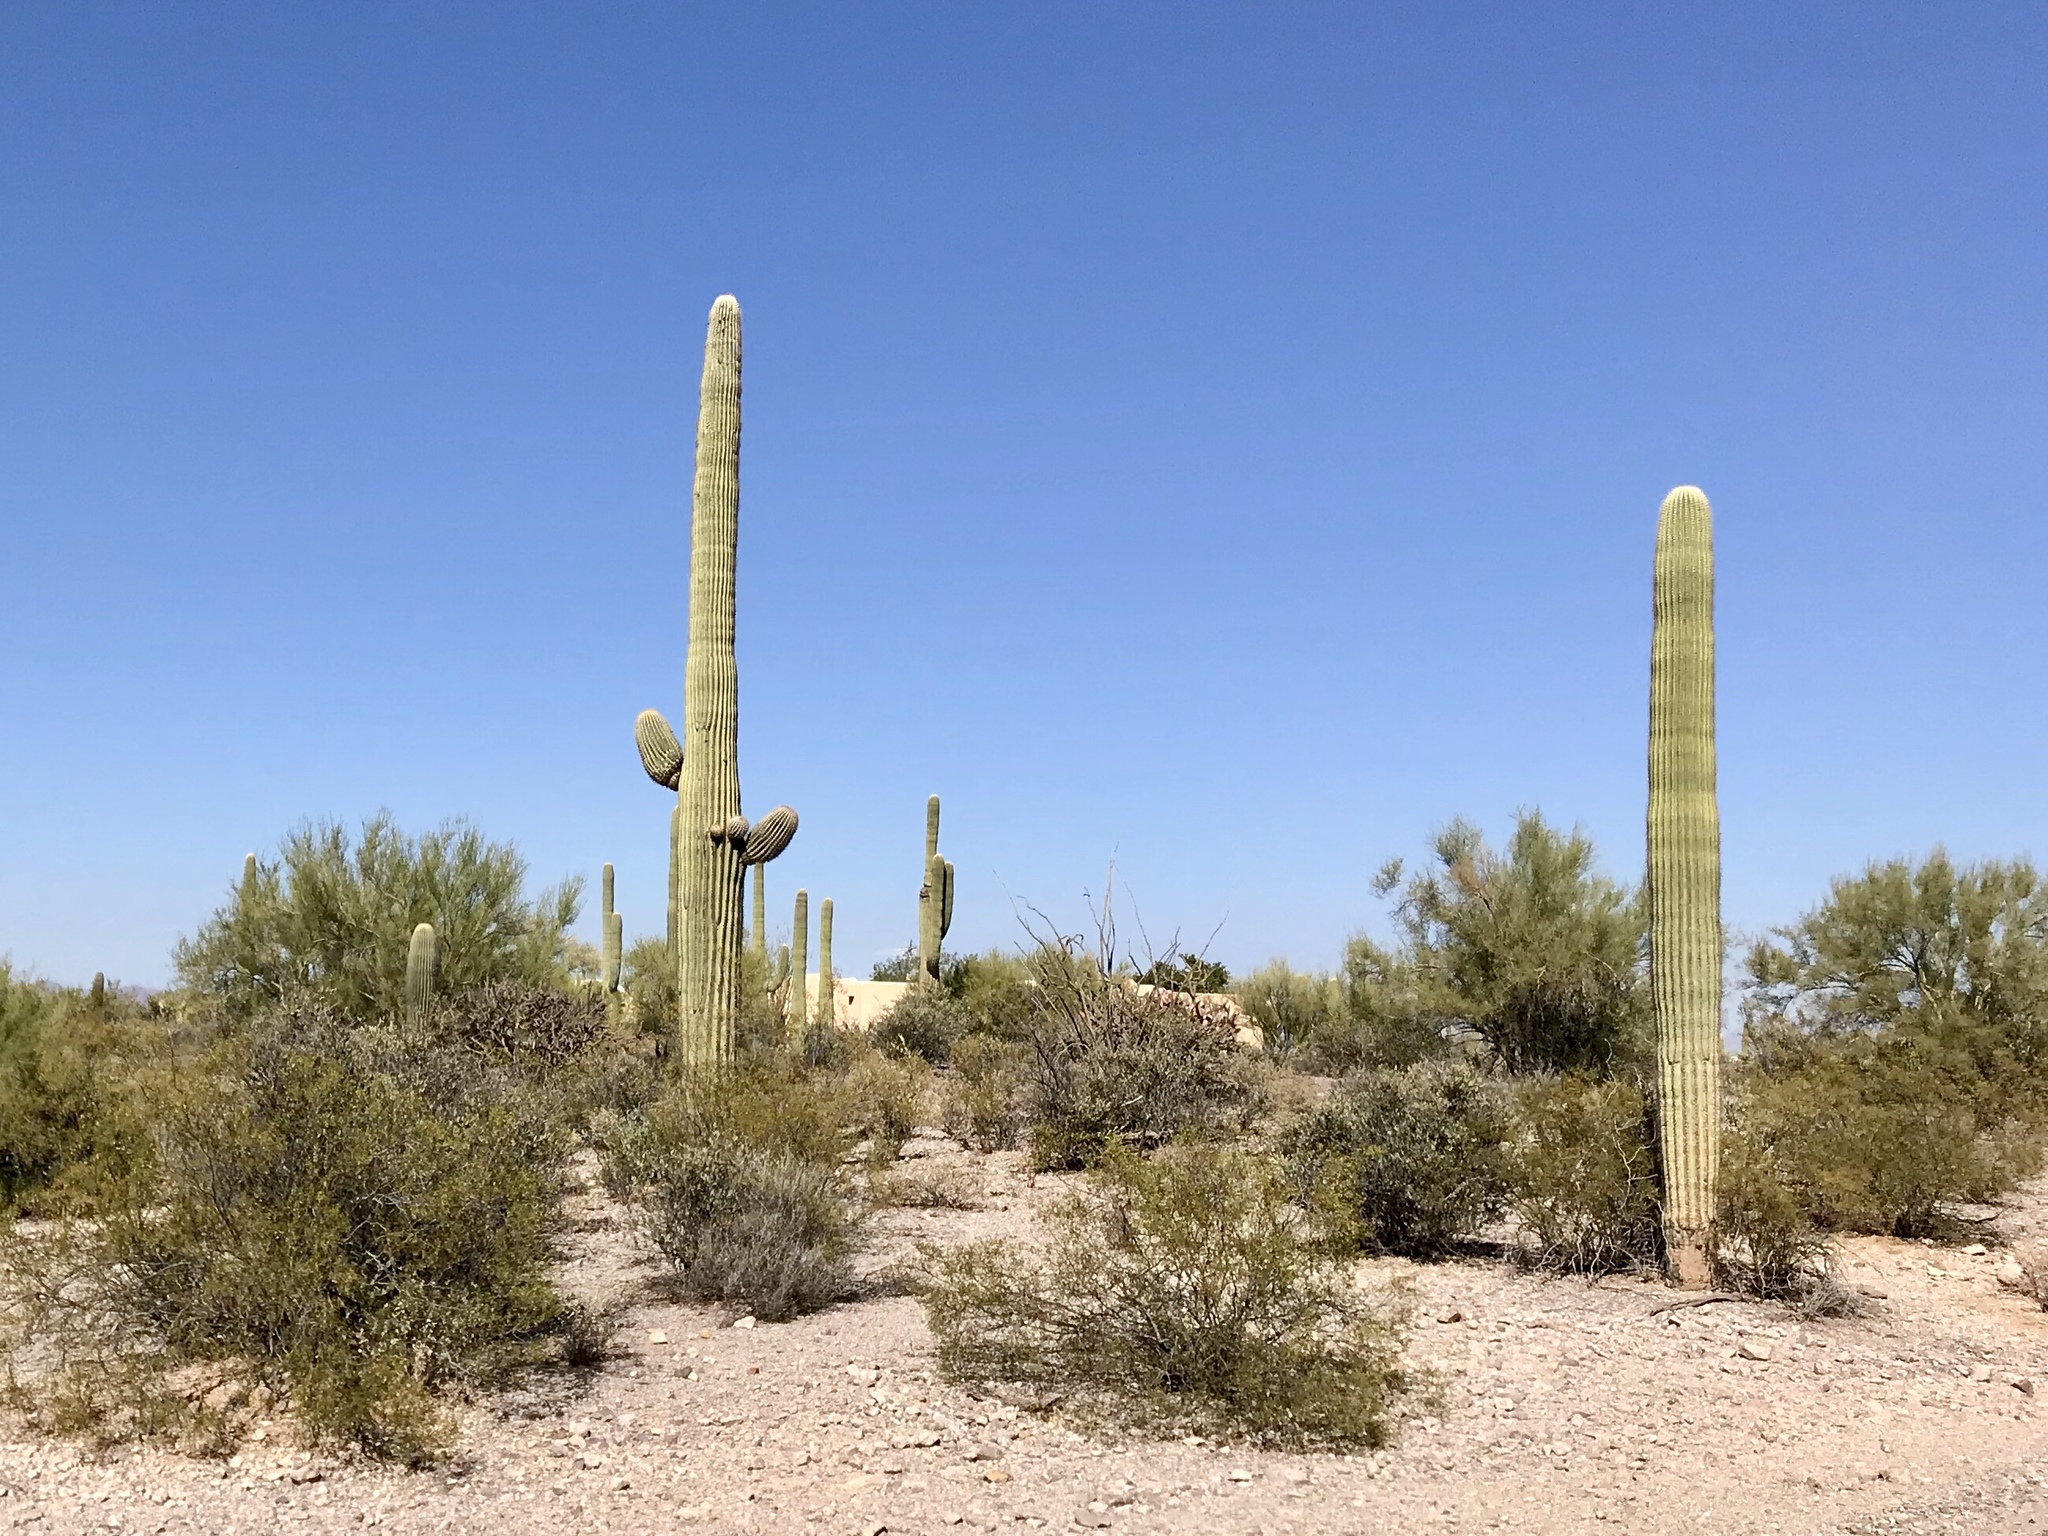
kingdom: Plantae
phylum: Tracheophyta
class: Magnoliopsida
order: Caryophyllales
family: Cactaceae
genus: Carnegiea
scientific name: Carnegiea gigantea
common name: Saguaro
